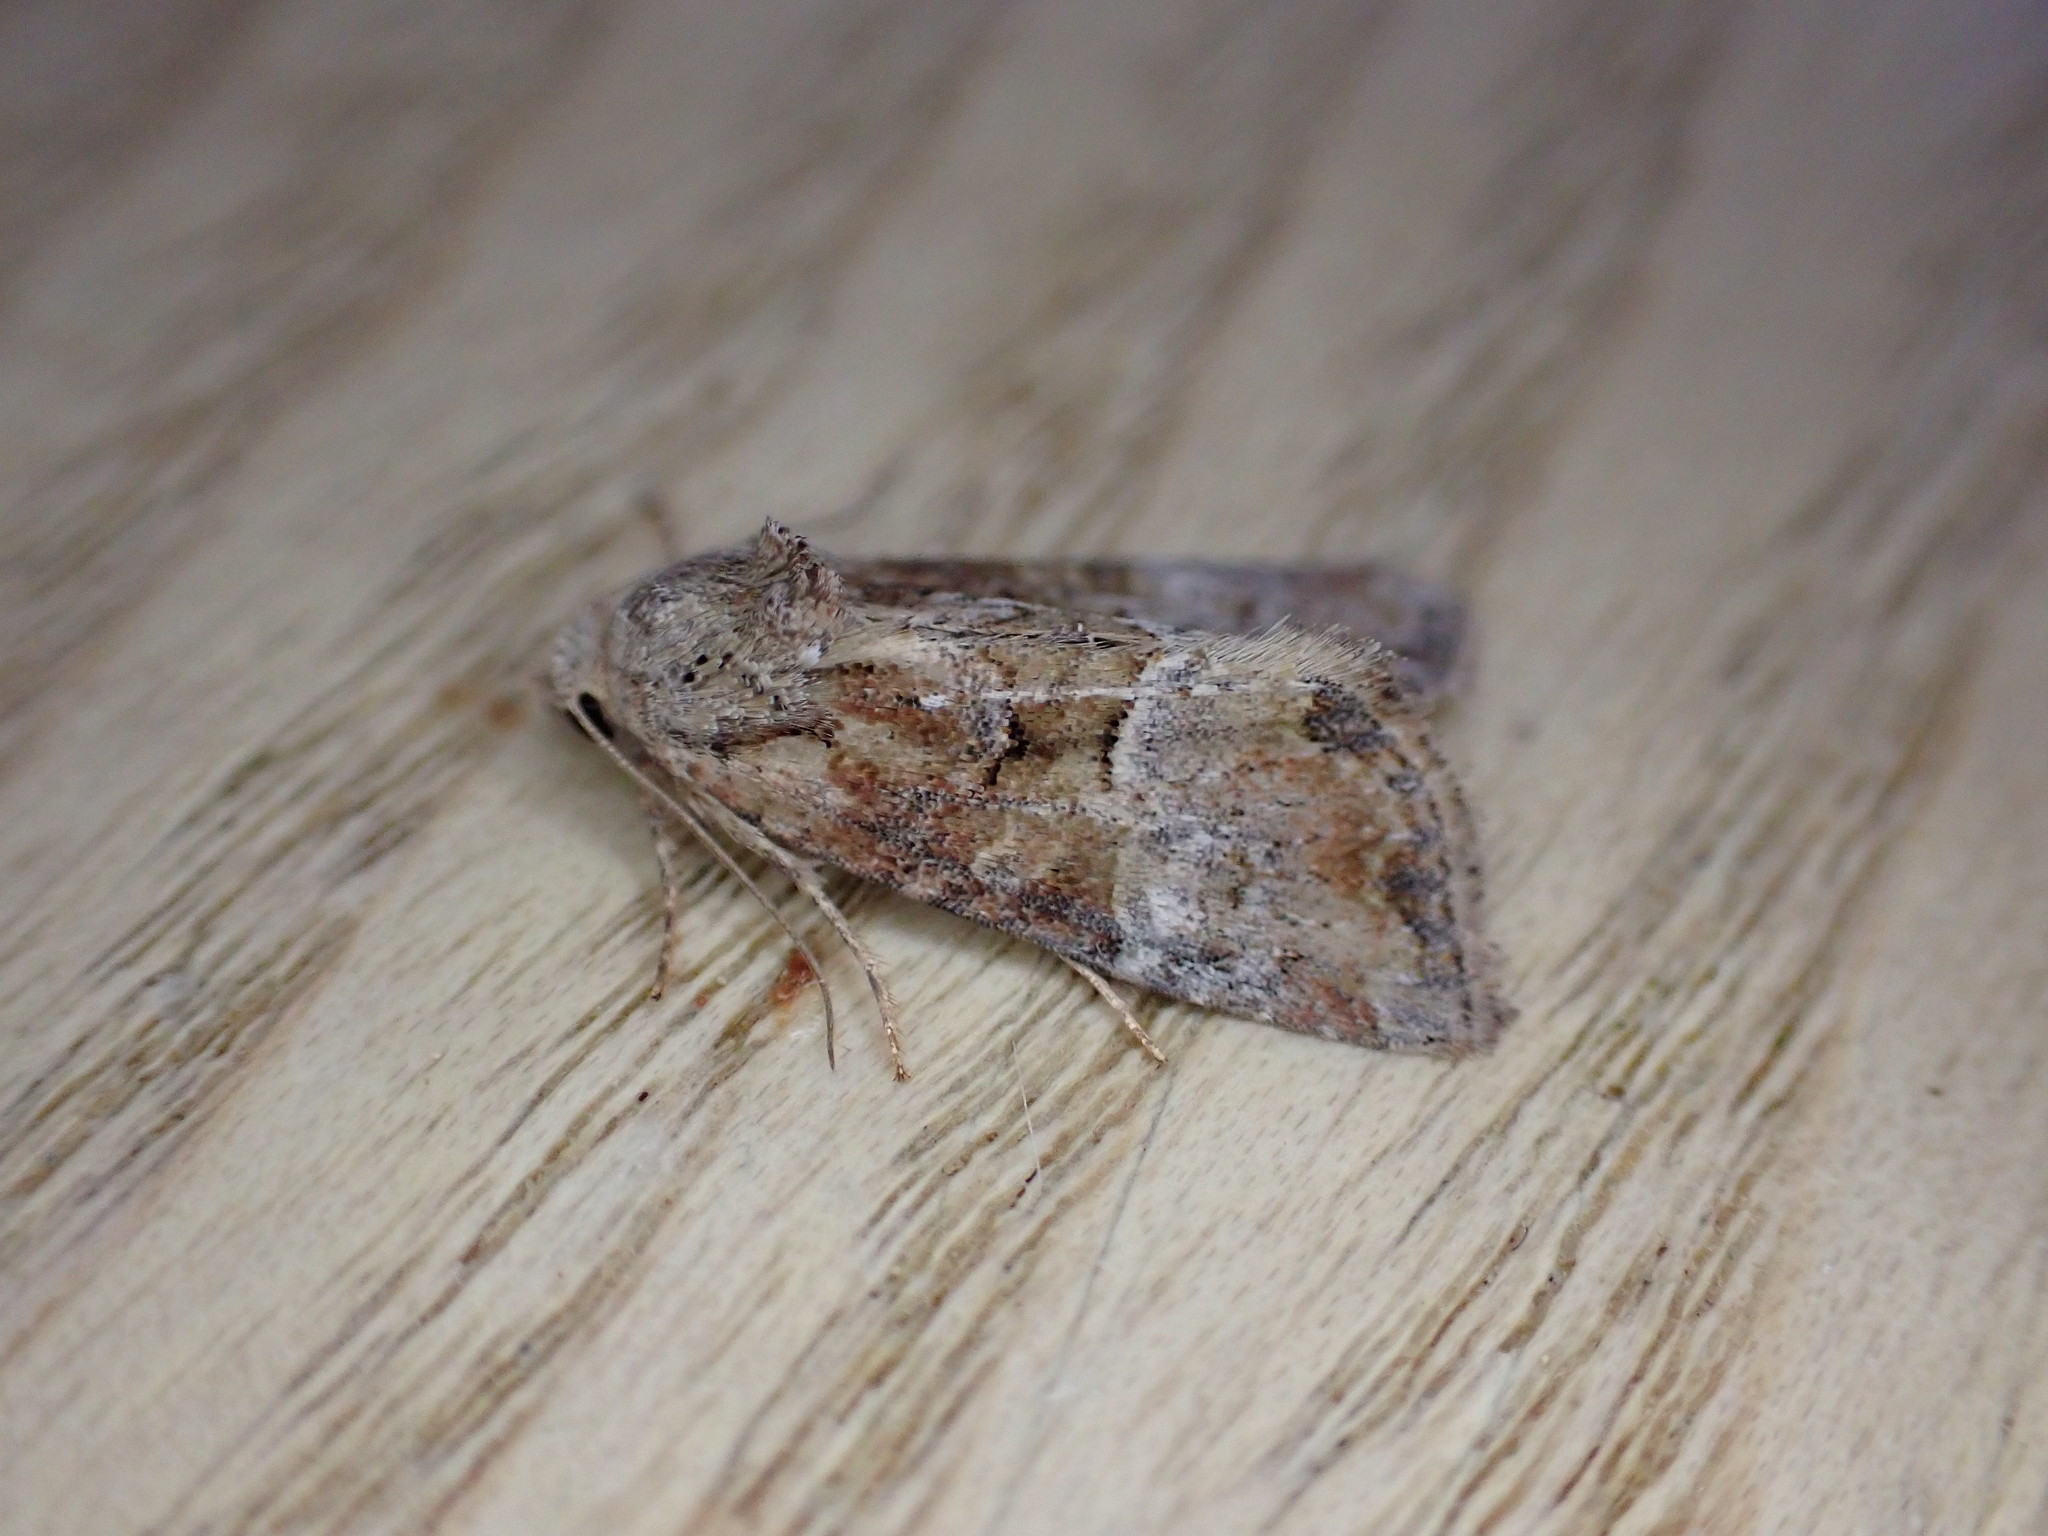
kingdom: Animalia
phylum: Arthropoda
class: Insecta
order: Lepidoptera
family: Noctuidae
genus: Mesoligia
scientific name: Mesoligia furuncula
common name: Cloaked minor
